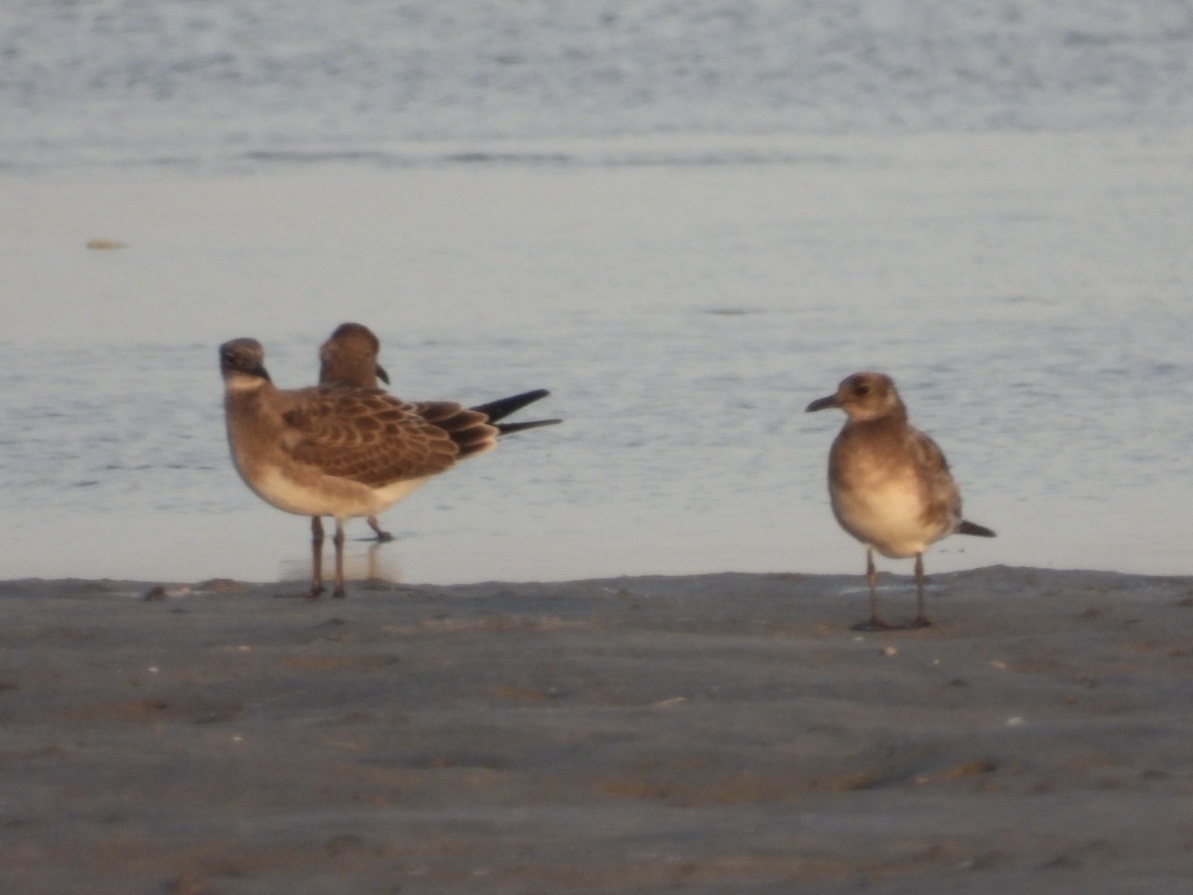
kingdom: Animalia
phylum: Chordata
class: Aves
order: Charadriiformes
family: Laridae
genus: Leucophaeus
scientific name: Leucophaeus atricilla
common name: Laughing gull
